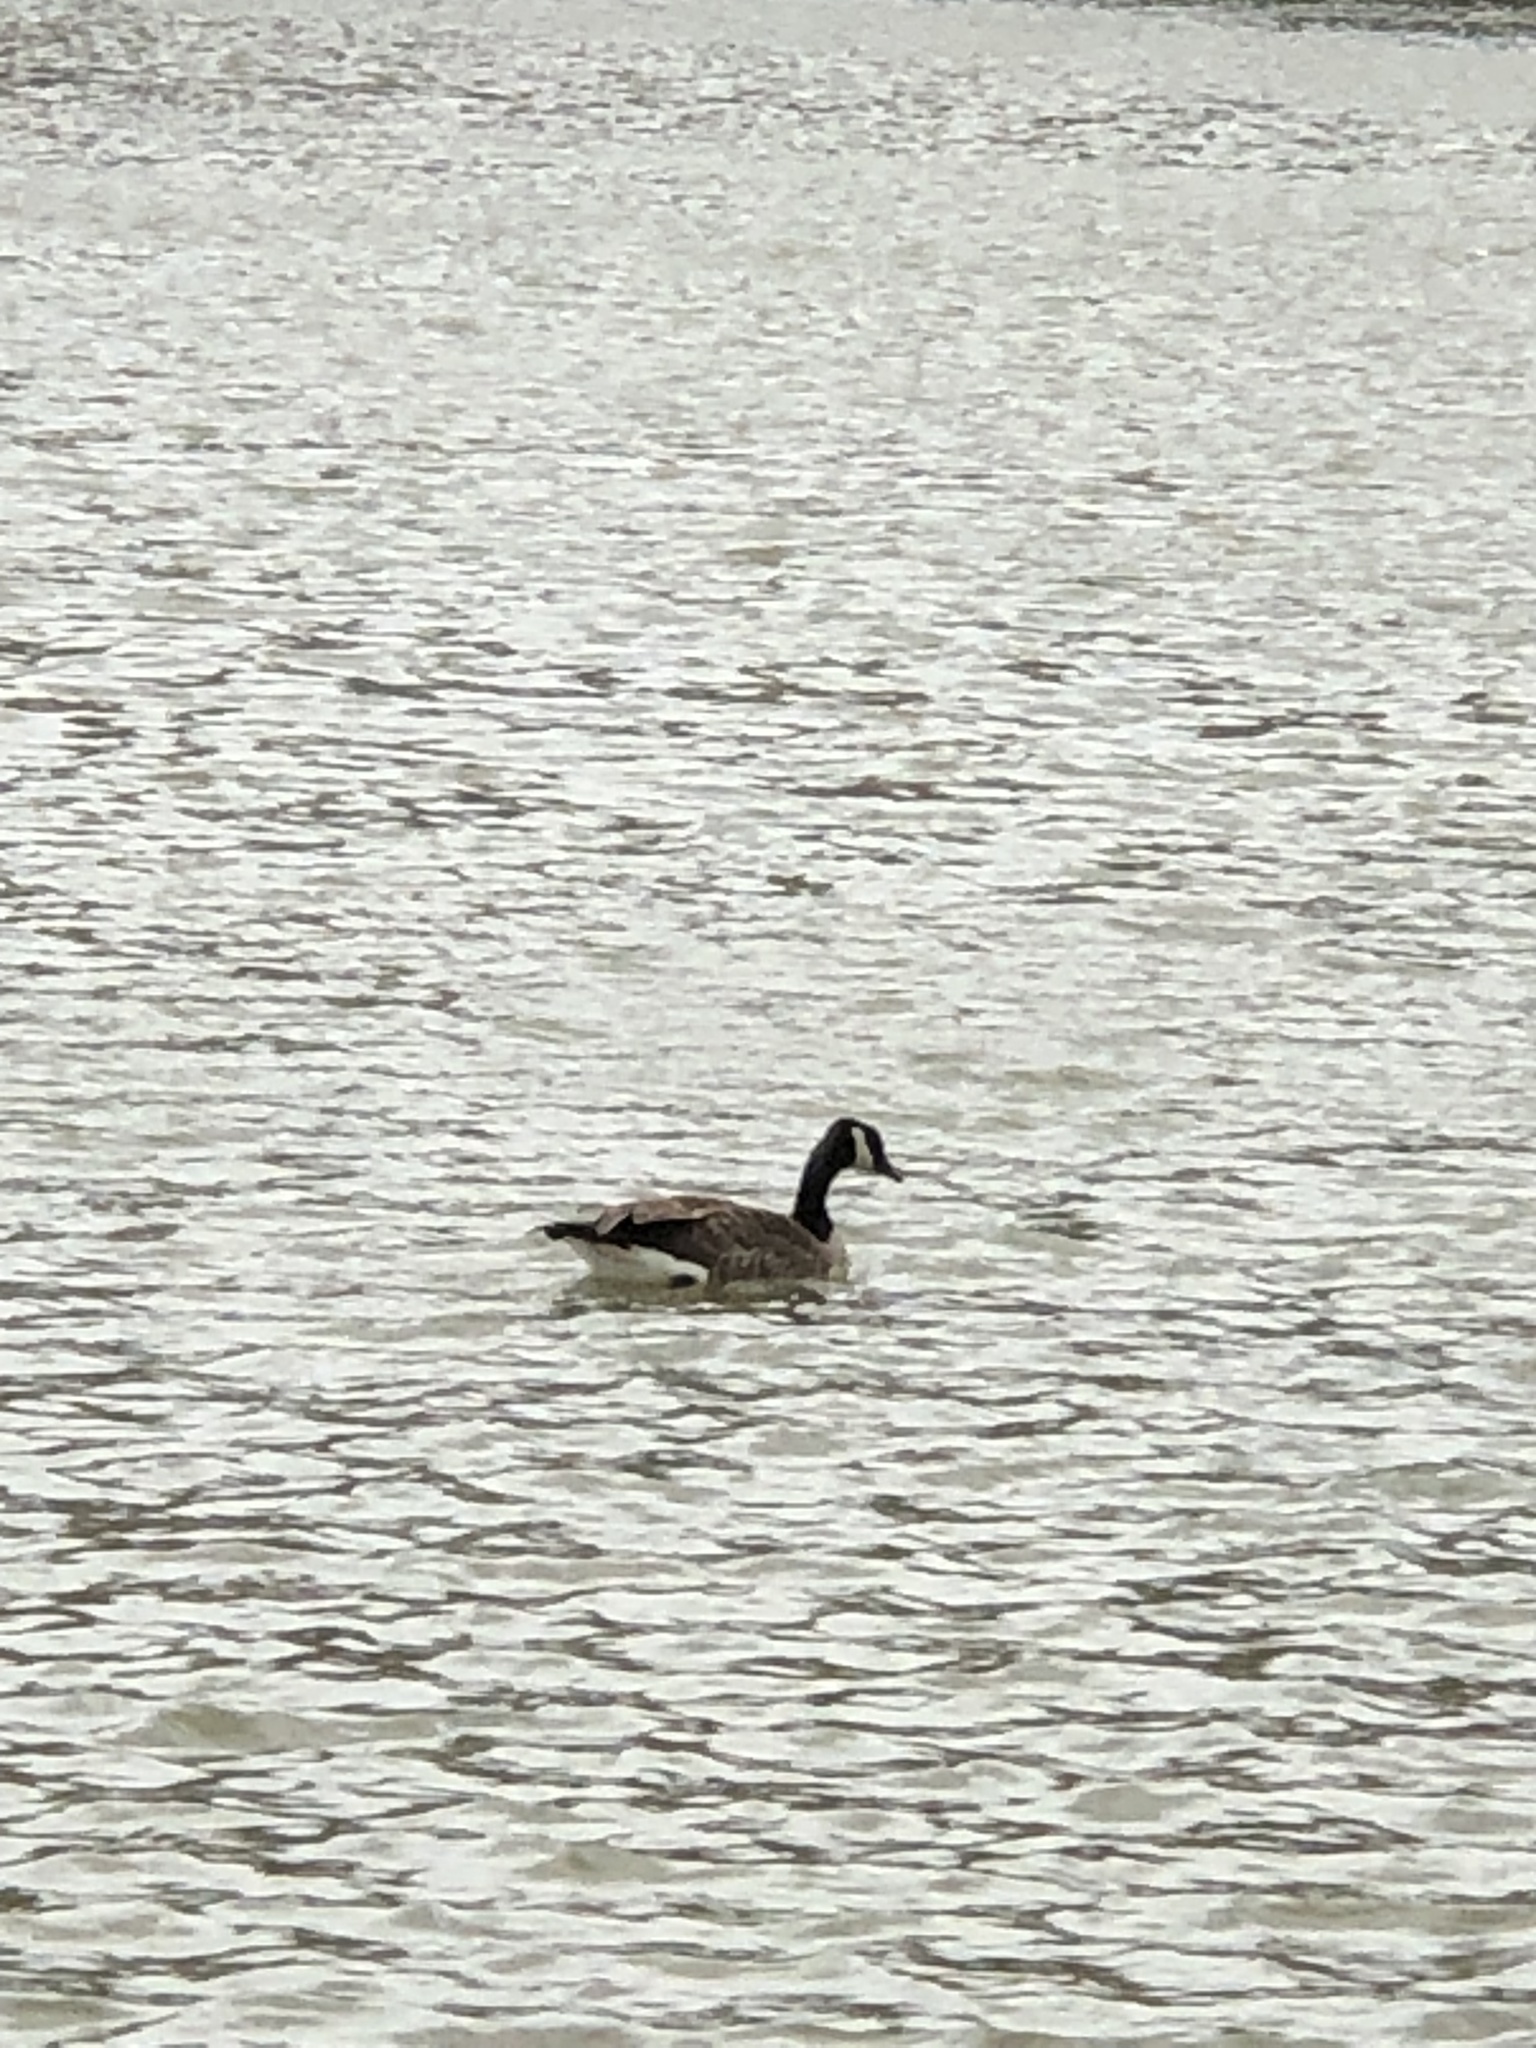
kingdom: Animalia
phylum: Chordata
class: Aves
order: Anseriformes
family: Anatidae
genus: Branta
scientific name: Branta canadensis
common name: Canada goose
